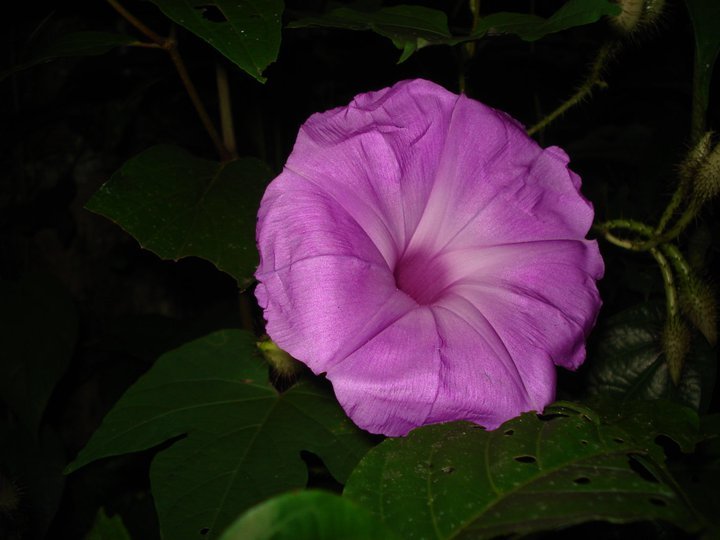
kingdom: Plantae
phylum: Tracheophyta
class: Magnoliopsida
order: Solanales
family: Convolvulaceae
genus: Ipomoea
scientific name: Ipomoea setosa
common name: Brazilian morning-glory
